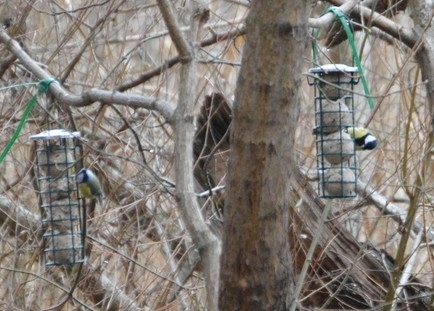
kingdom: Animalia
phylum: Chordata
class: Aves
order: Passeriformes
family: Paridae
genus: Parus
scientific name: Parus major
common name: Great tit
